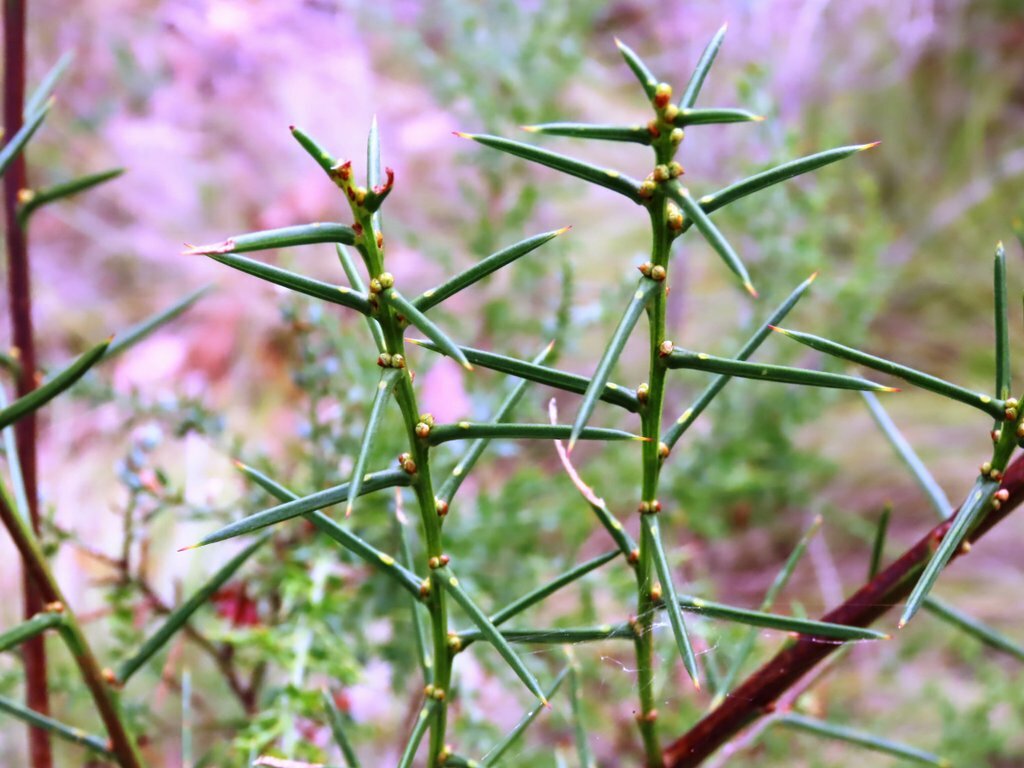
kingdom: Plantae
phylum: Tracheophyta
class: Magnoliopsida
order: Fabales
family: Fabaceae
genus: Acacia
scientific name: Acacia genistifolia
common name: Early wattle
